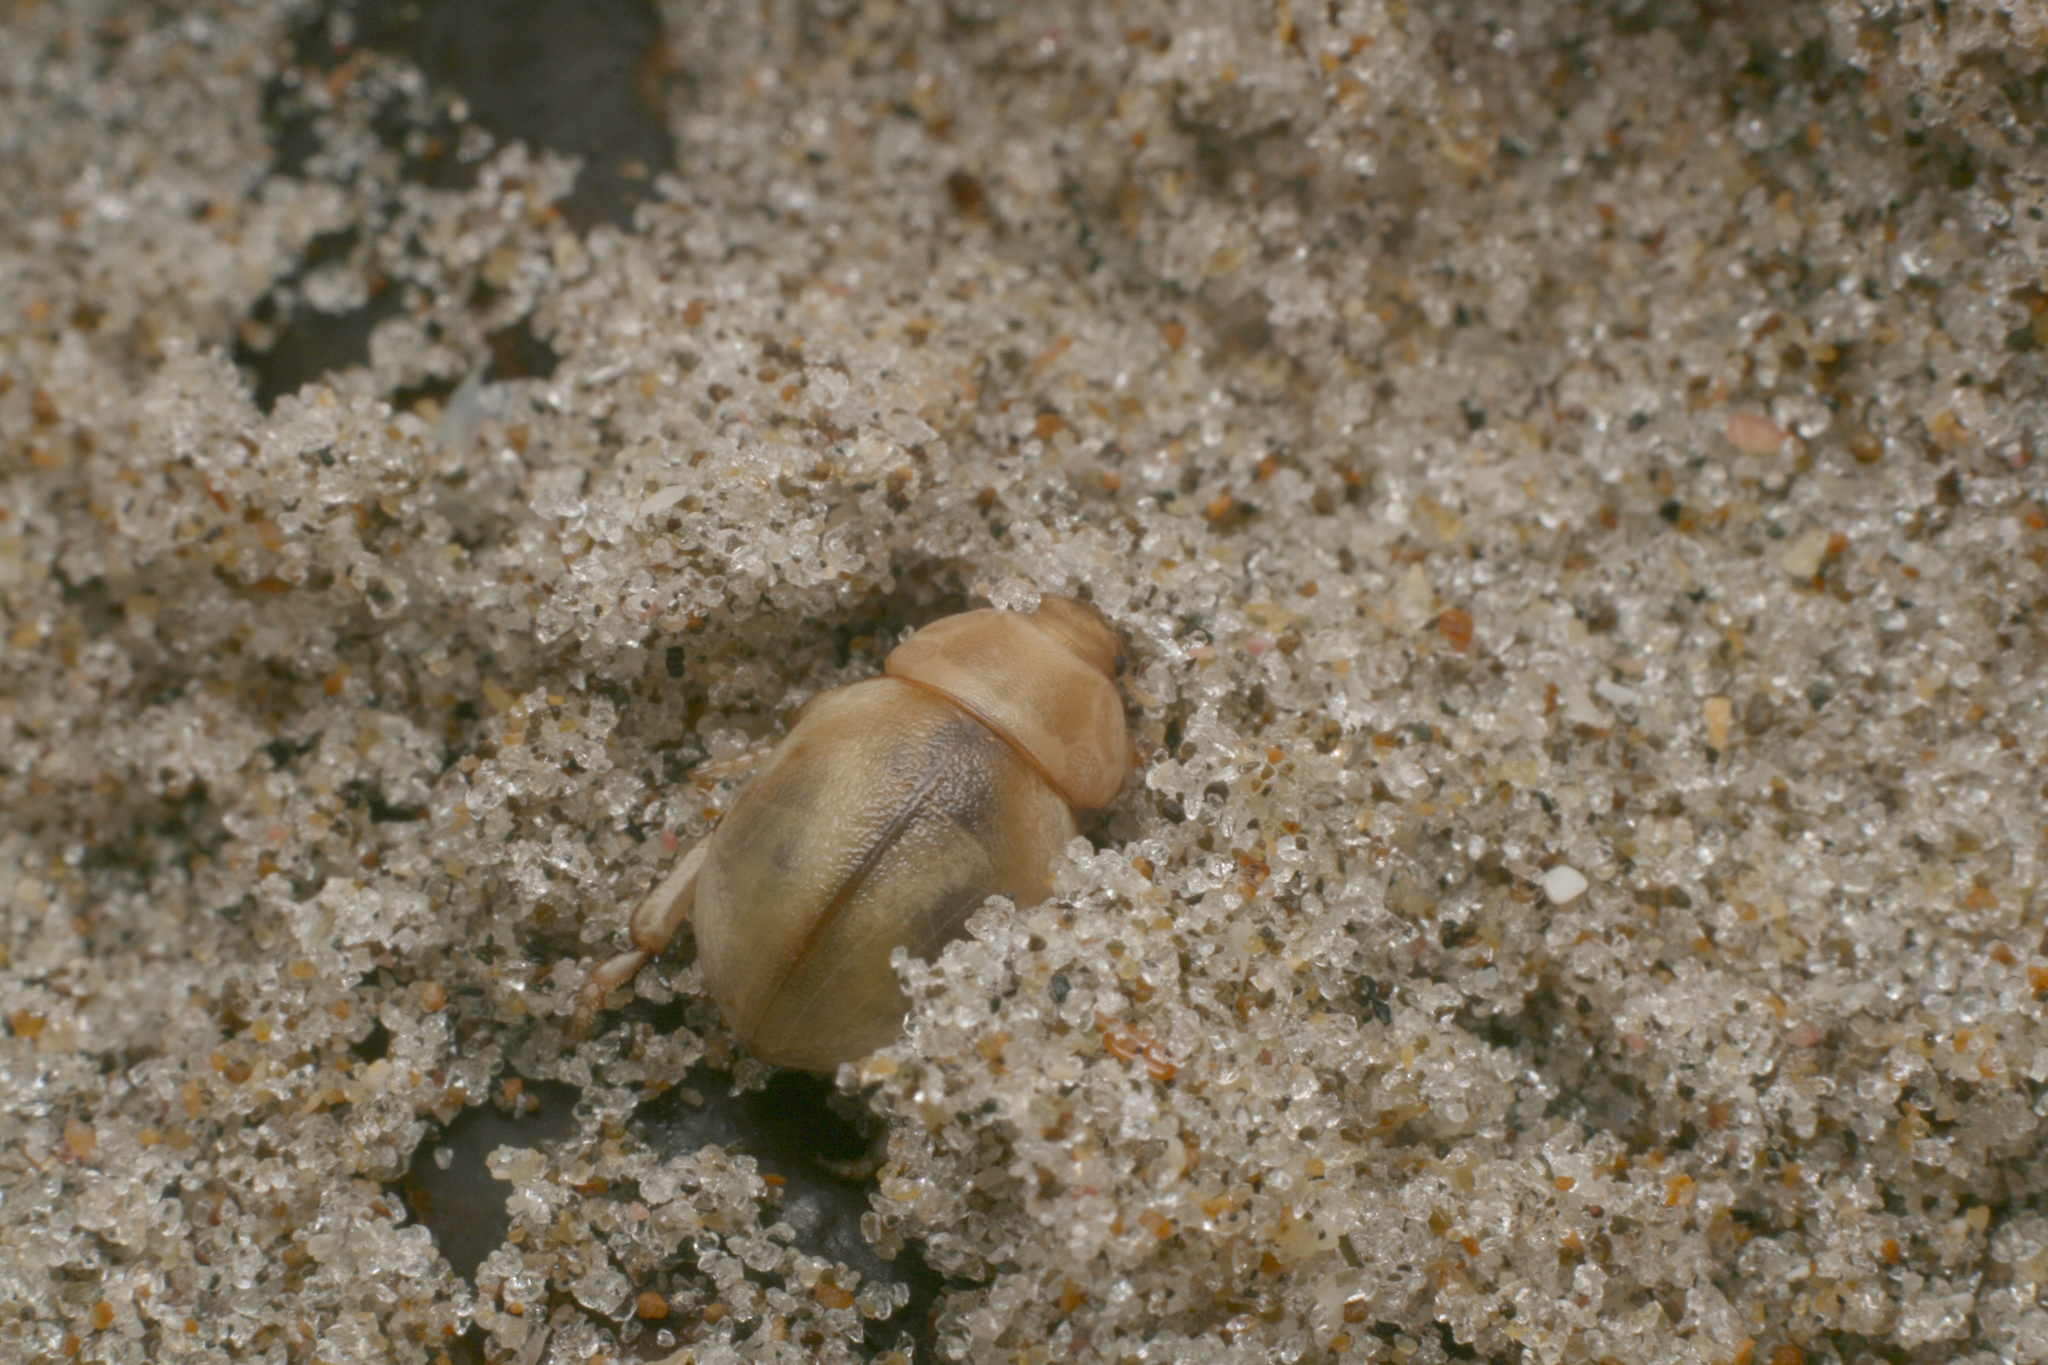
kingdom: Animalia
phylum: Arthropoda
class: Insecta
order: Coleoptera
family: Tenebrionidae
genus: Chaerodes
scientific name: Chaerodes trachyscelides
